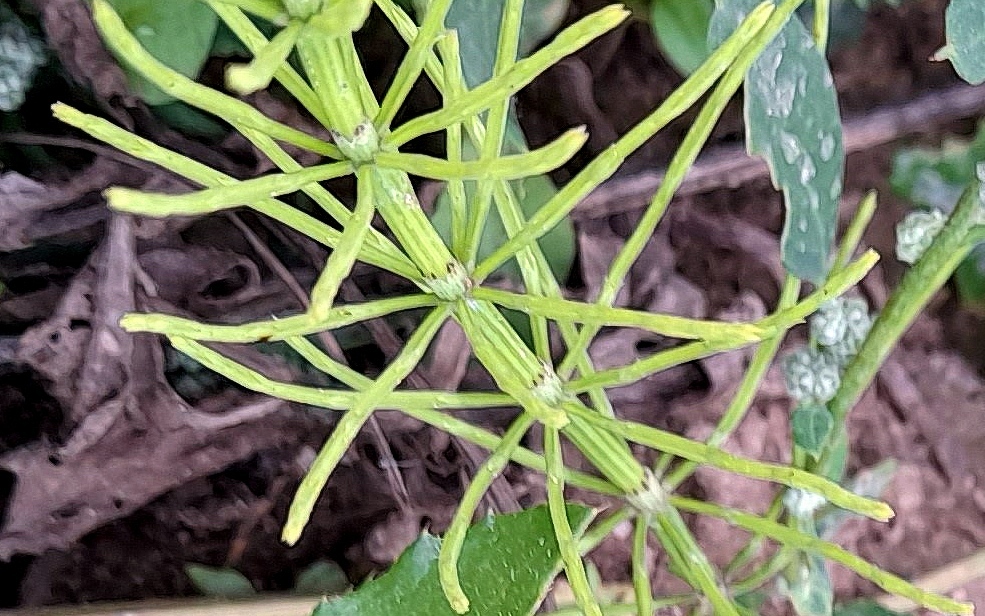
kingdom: Plantae
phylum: Tracheophyta
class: Polypodiopsida
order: Equisetales
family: Equisetaceae
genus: Equisetum
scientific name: Equisetum arvense
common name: Field horsetail
